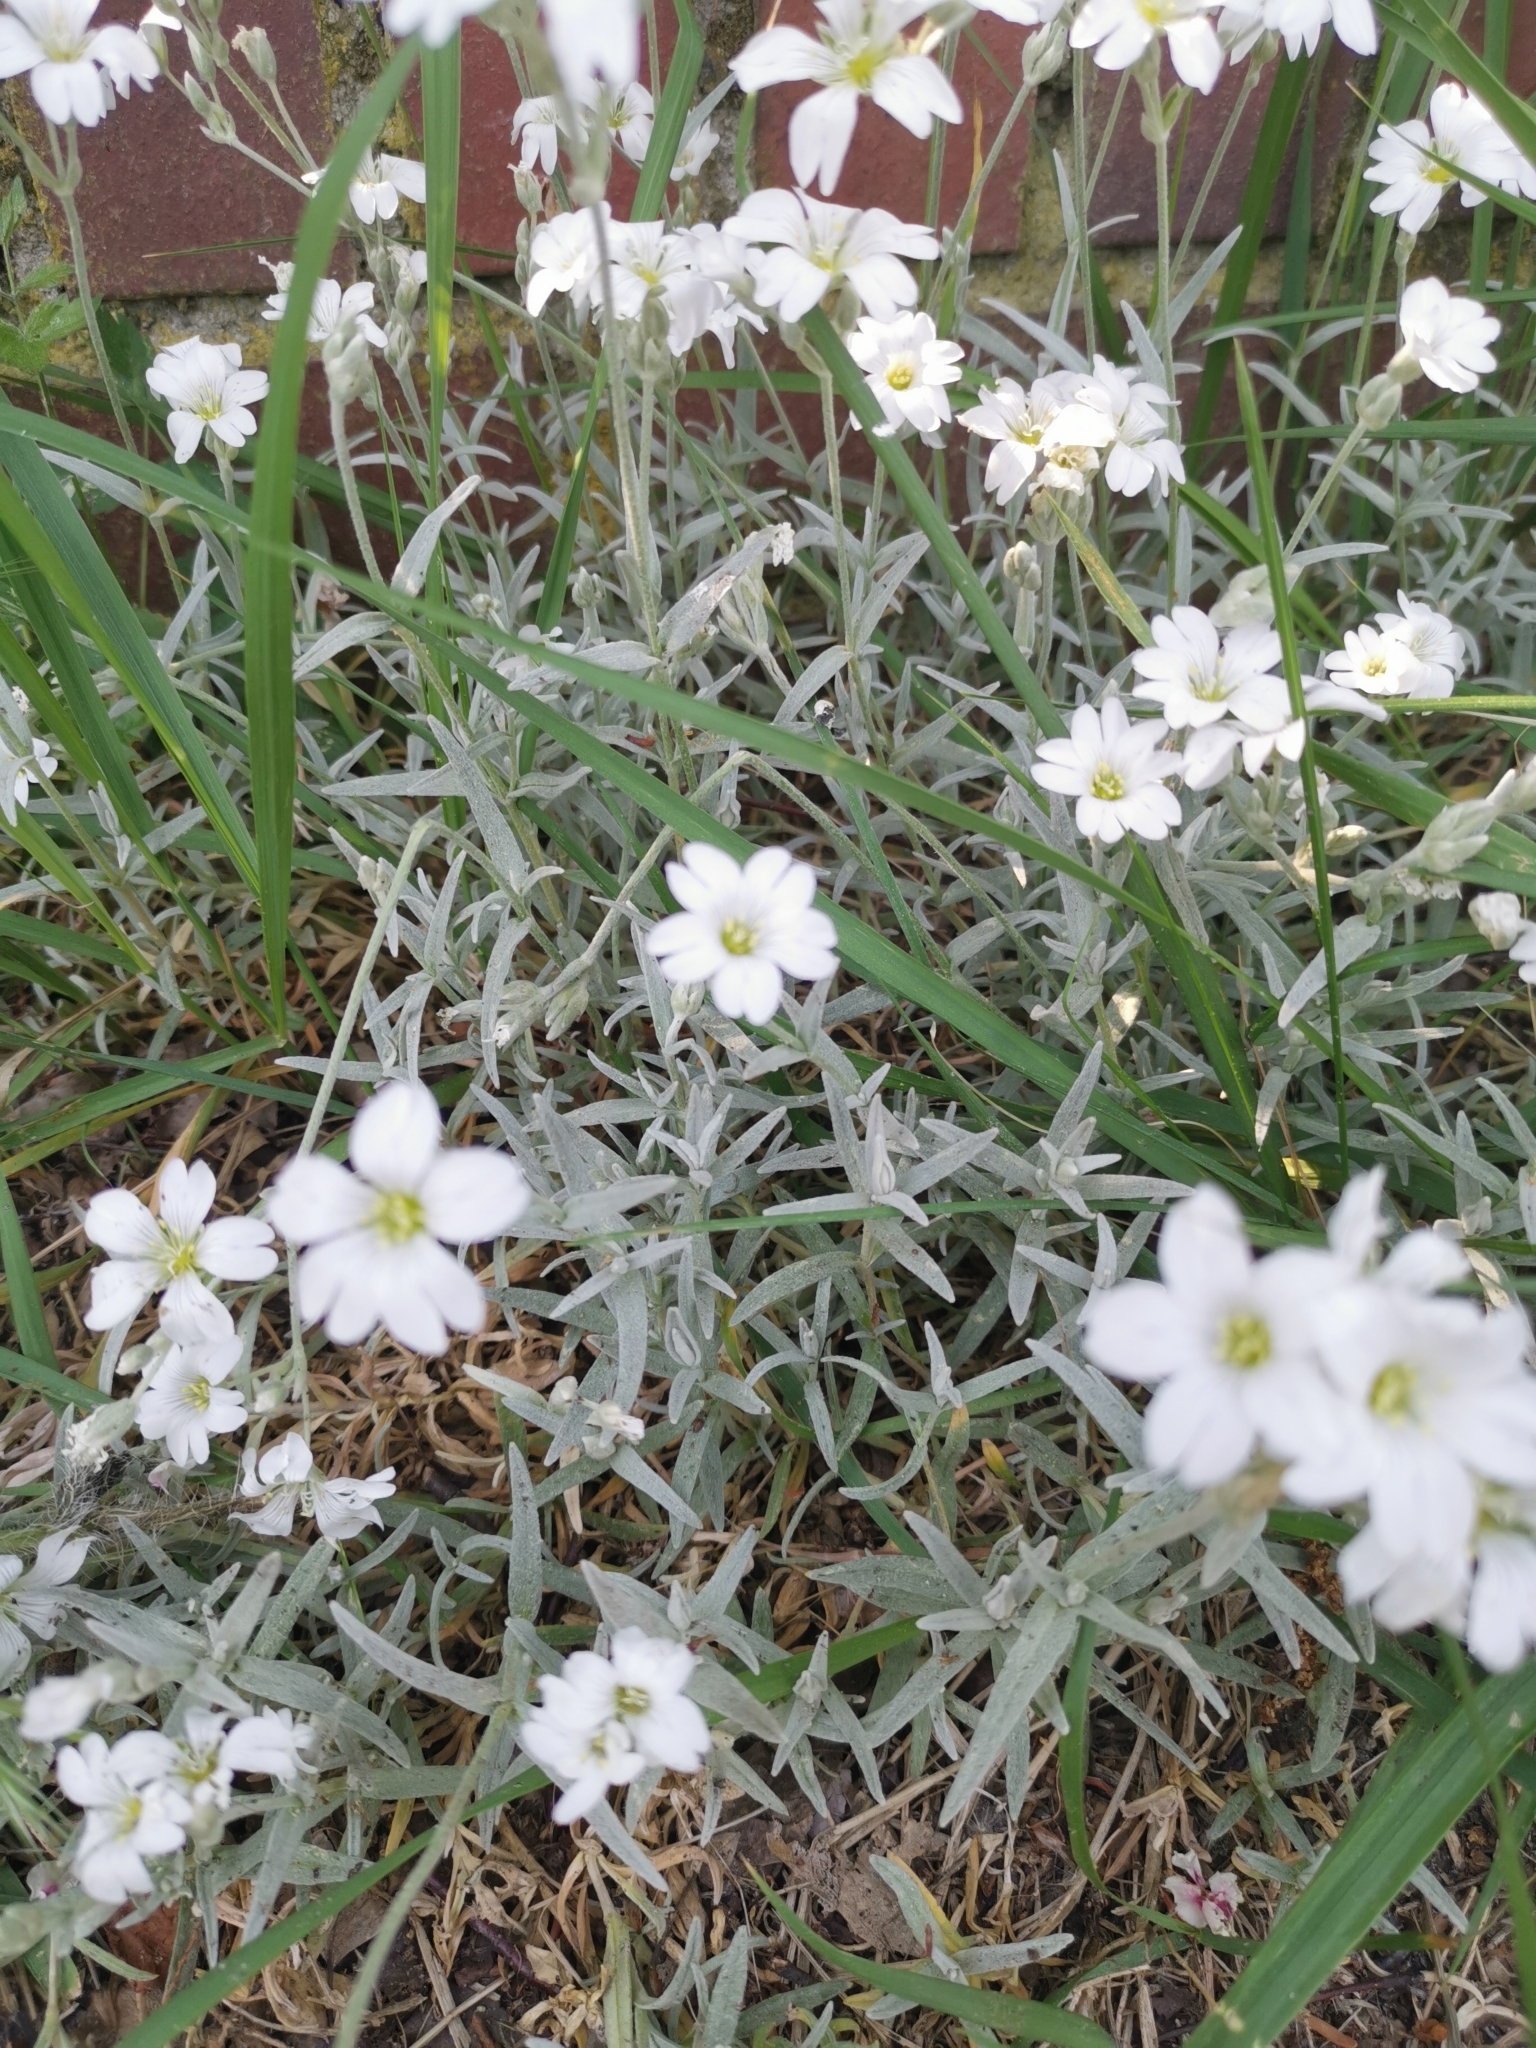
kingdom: Plantae
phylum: Tracheophyta
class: Magnoliopsida
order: Caryophyllales
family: Caryophyllaceae
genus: Cerastium
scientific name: Cerastium tomentosum
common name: Snow-in-summer
